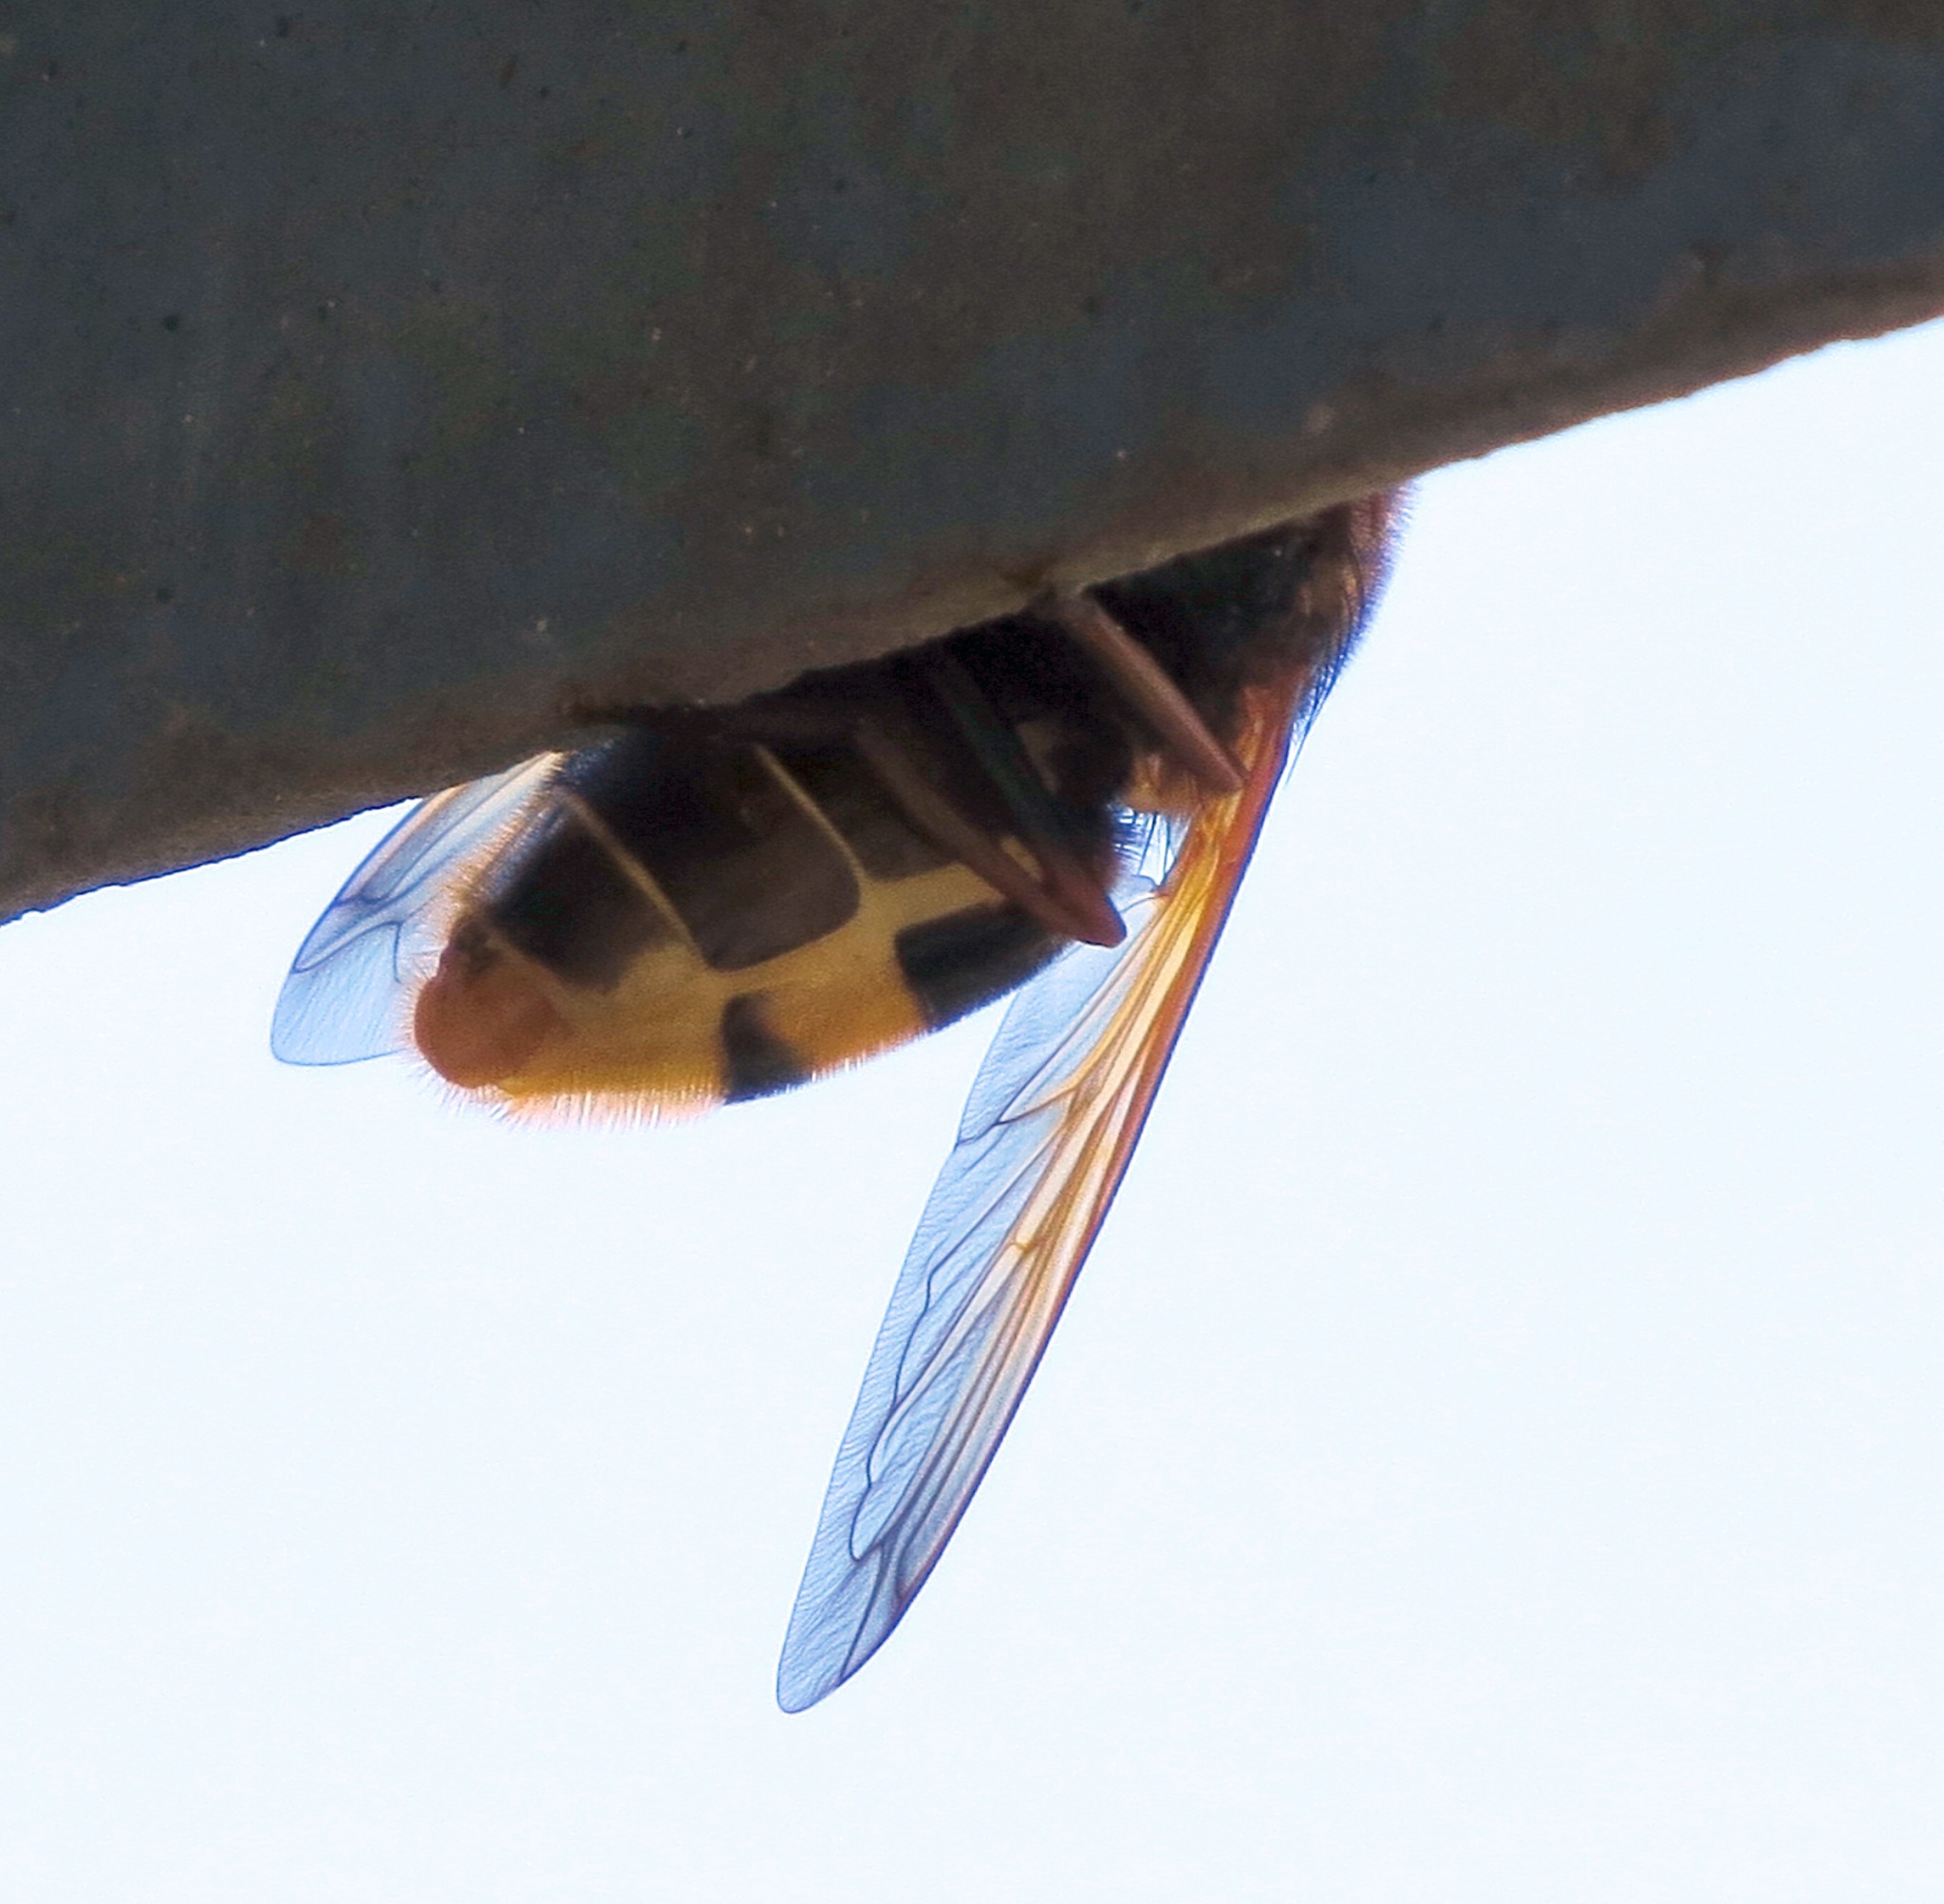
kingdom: Animalia
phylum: Arthropoda
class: Insecta
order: Diptera
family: Syrphidae
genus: Volucella
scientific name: Volucella zonaria
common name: Hornet hoverfly
